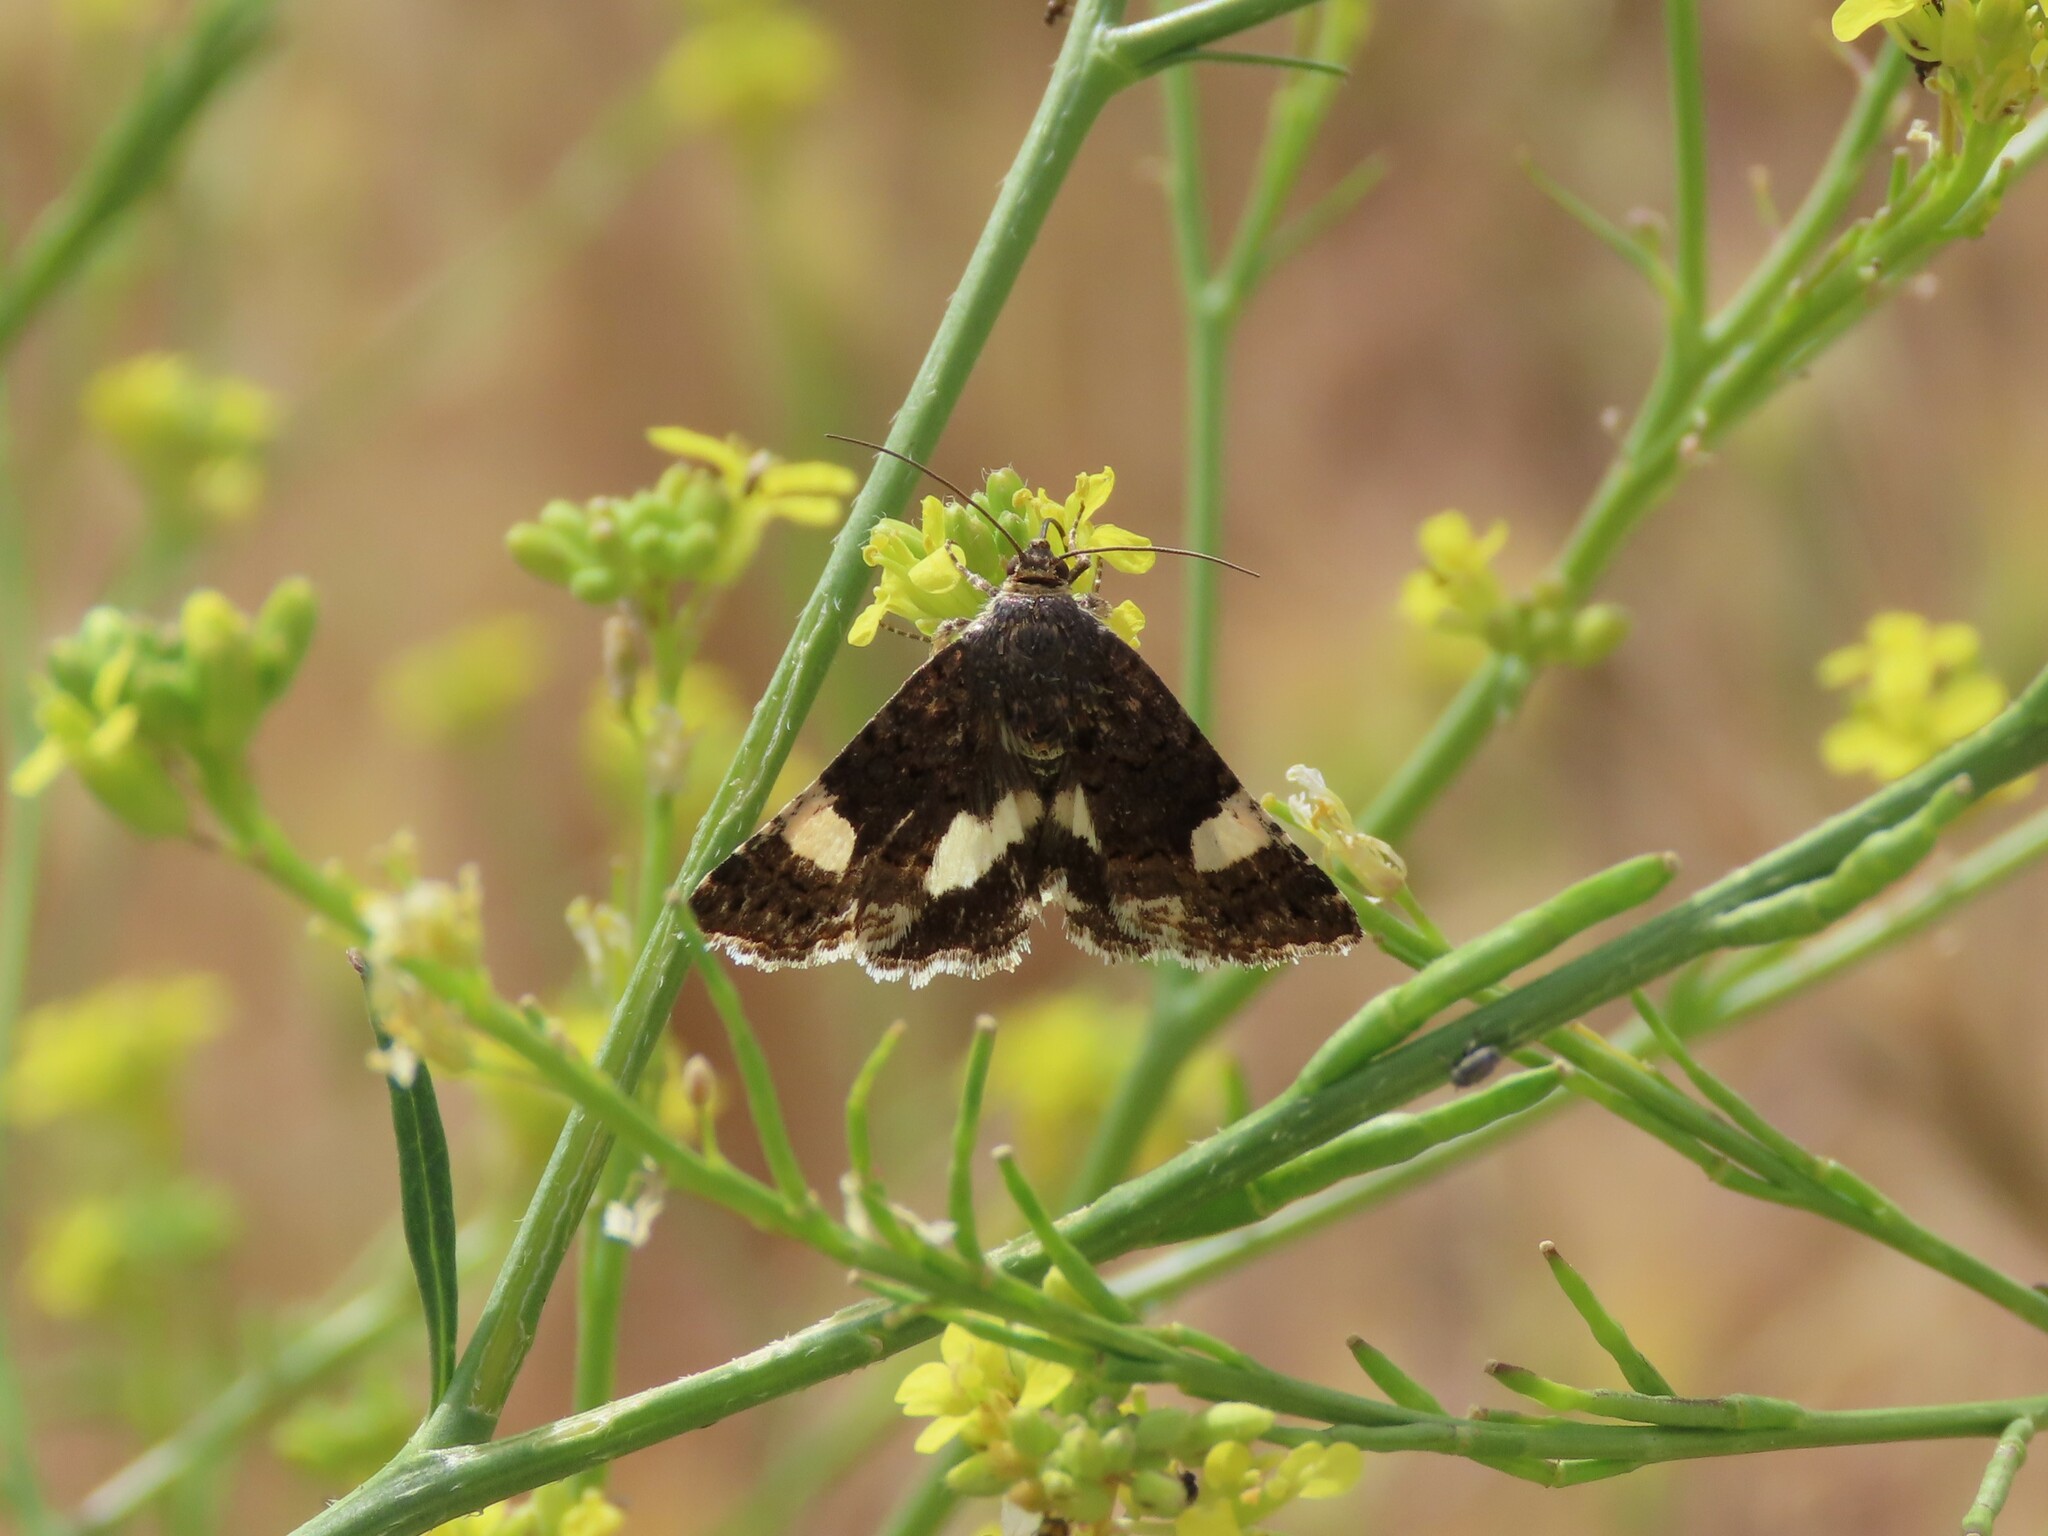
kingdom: Animalia
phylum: Arthropoda
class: Insecta
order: Lepidoptera
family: Erebidae
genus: Tyta
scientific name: Tyta luctuosa
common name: Four-spotted
